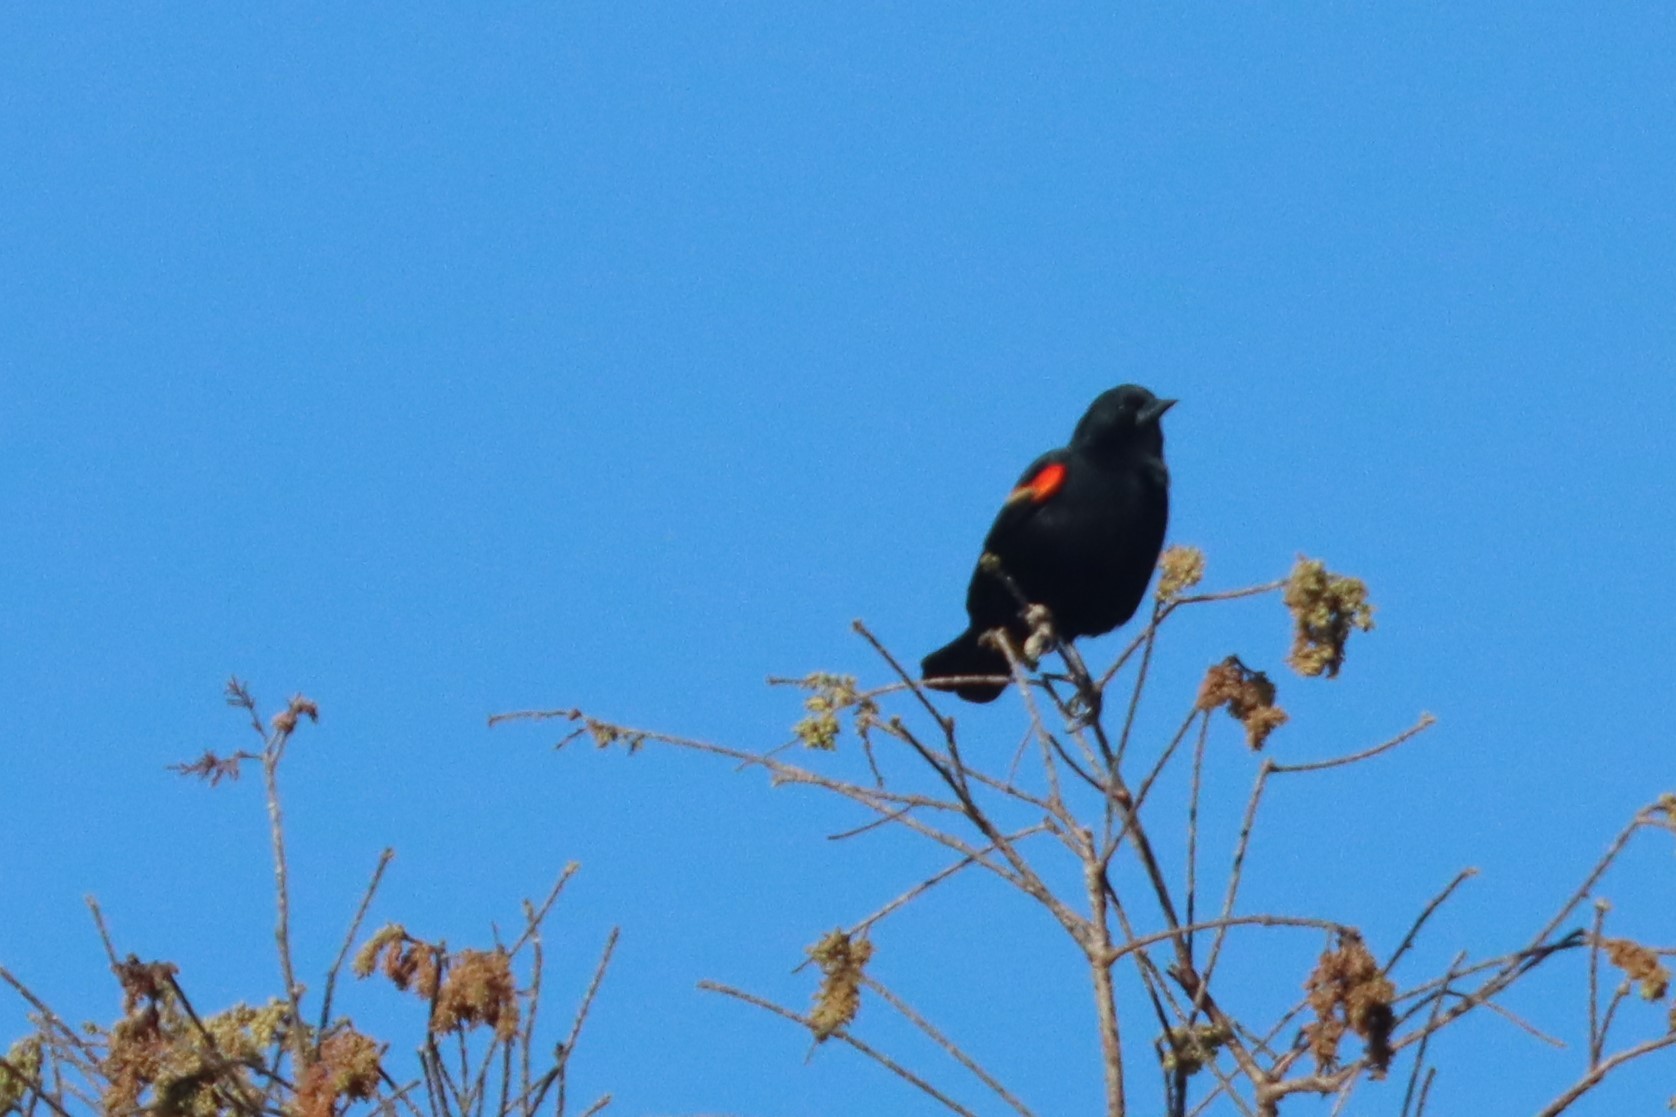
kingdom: Animalia
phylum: Chordata
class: Aves
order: Passeriformes
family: Icteridae
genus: Agelaius
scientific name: Agelaius phoeniceus
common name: Red-winged blackbird
